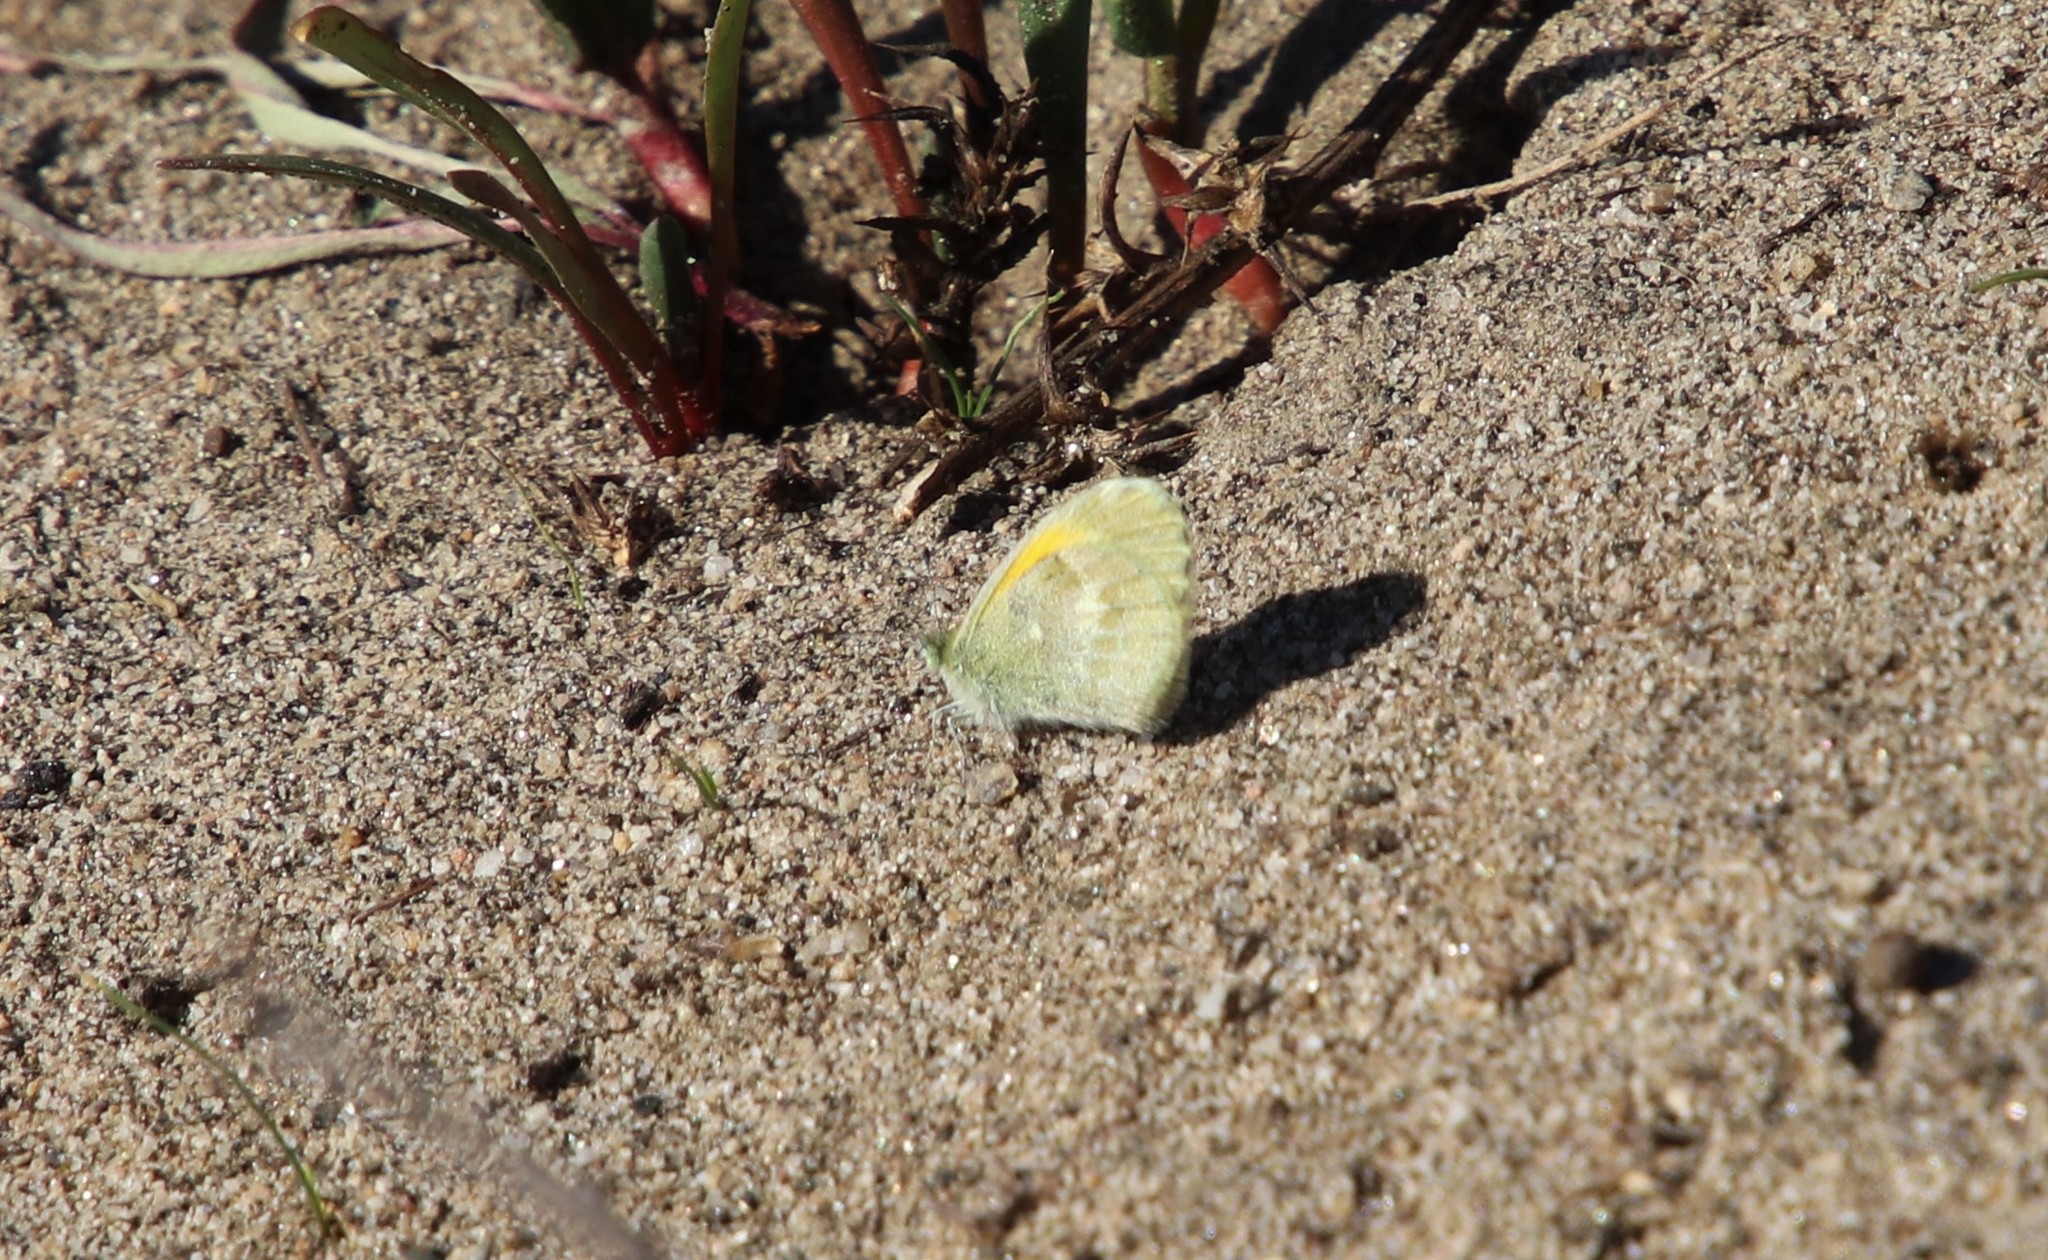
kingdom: Animalia
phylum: Arthropoda
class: Insecta
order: Lepidoptera
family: Pieridae
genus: Nathalis
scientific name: Nathalis iole
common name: Dainty sulphur
